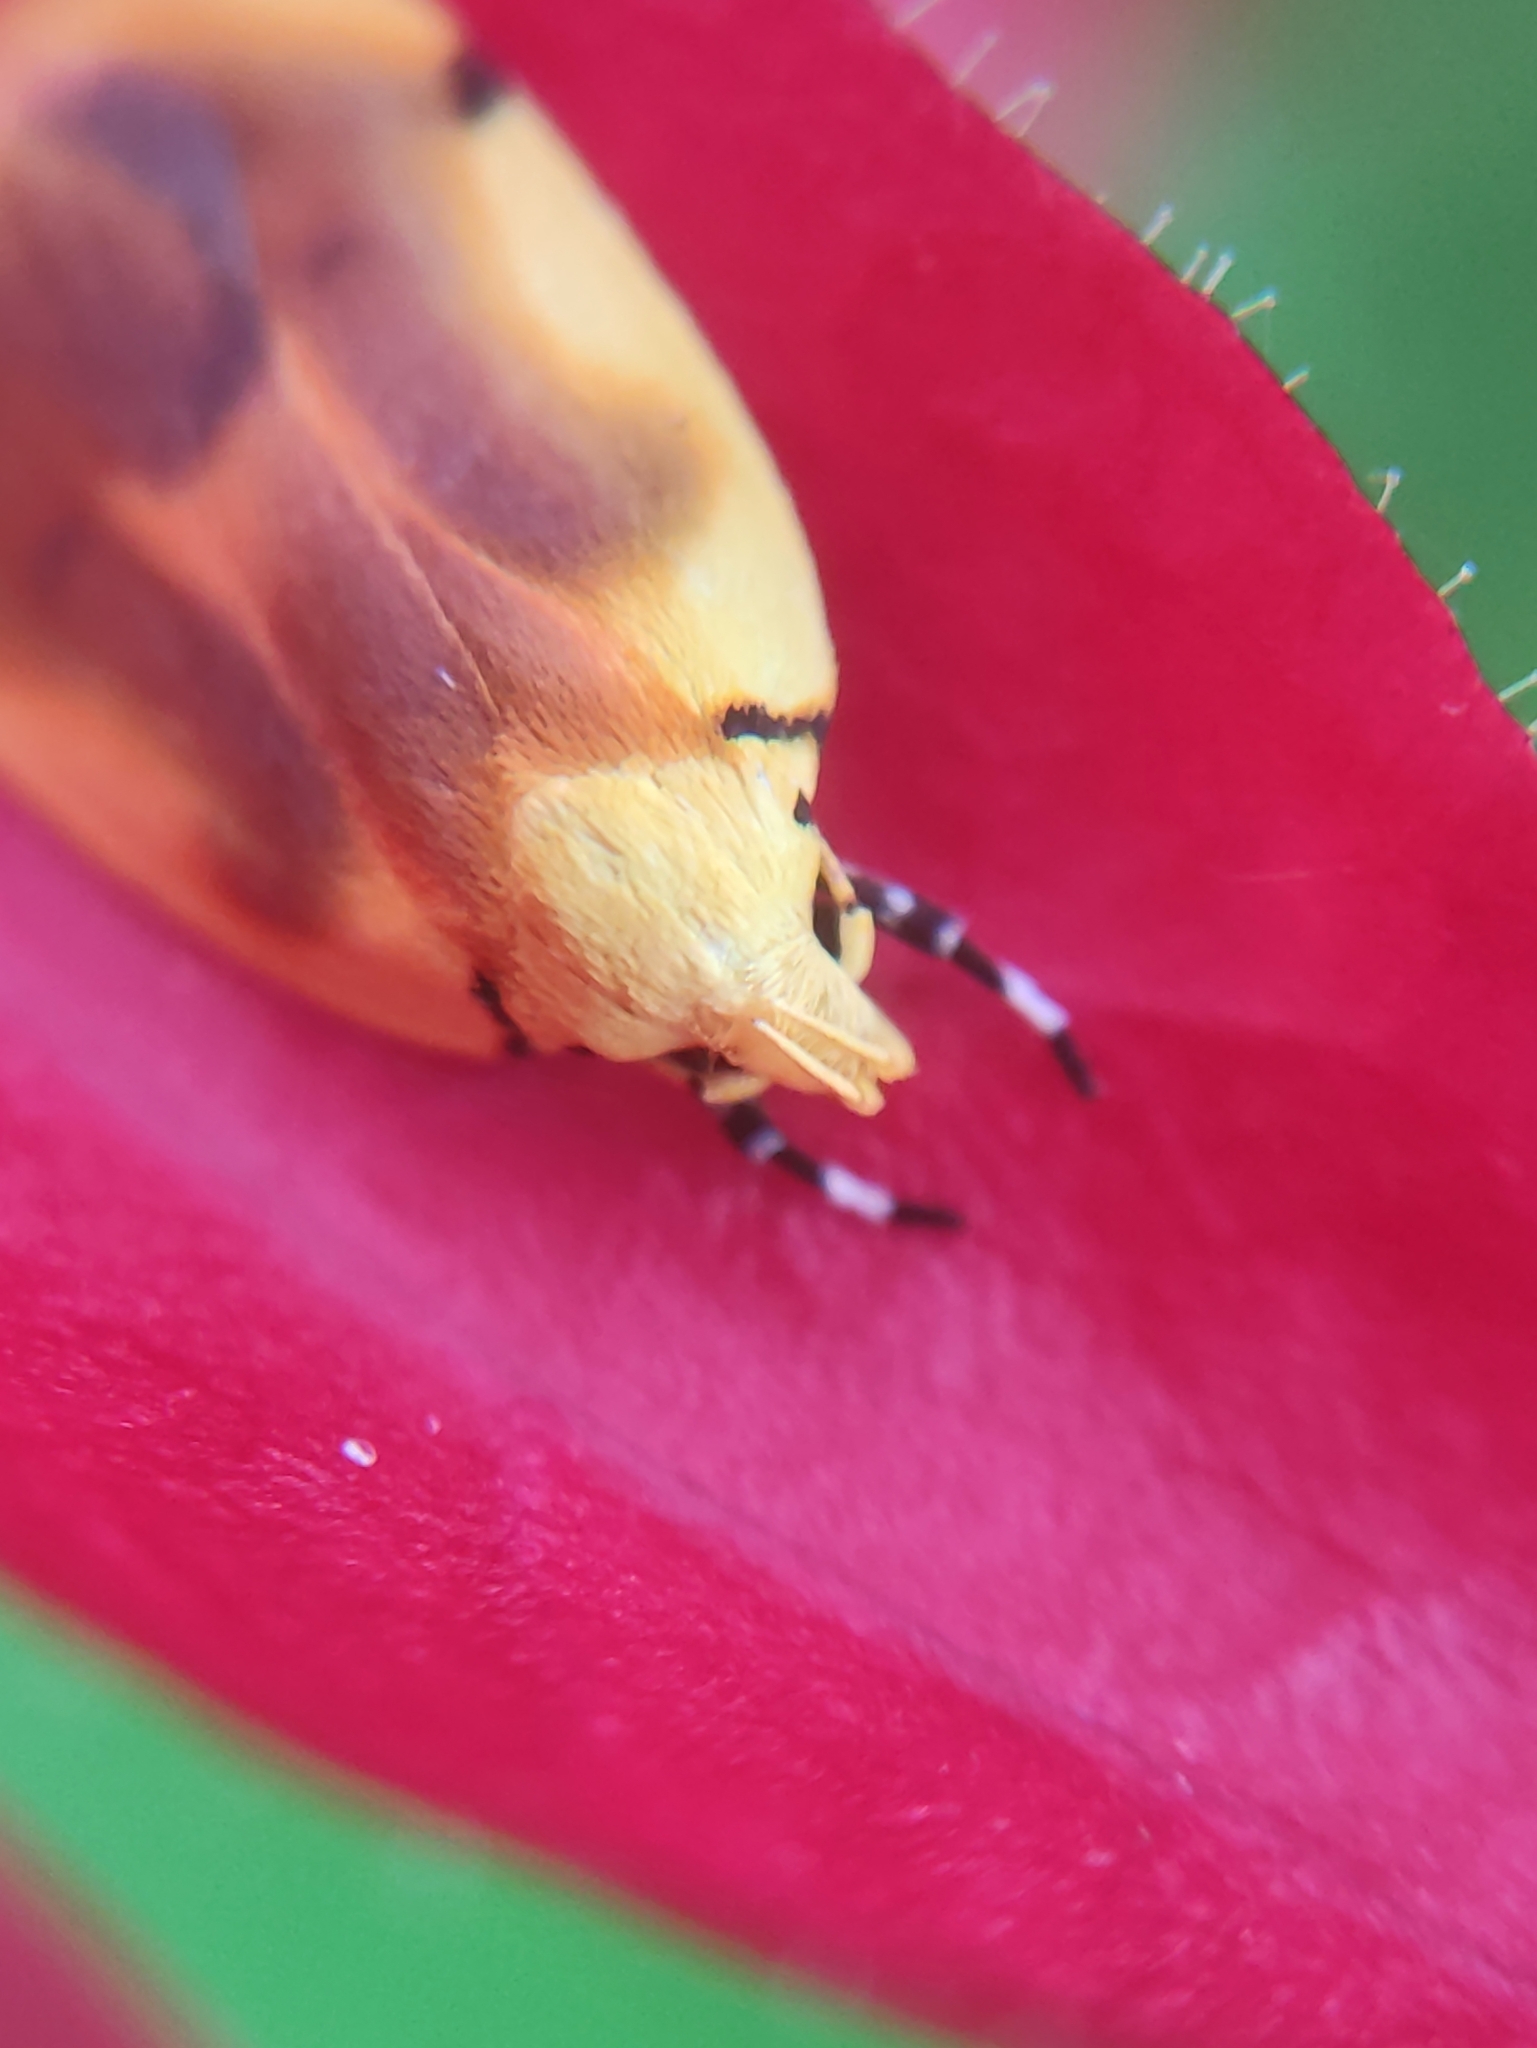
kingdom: Animalia
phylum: Arthropoda
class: Insecta
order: Lepidoptera
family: Oecophoridae
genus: Hypercallia
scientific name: Hypercallia
